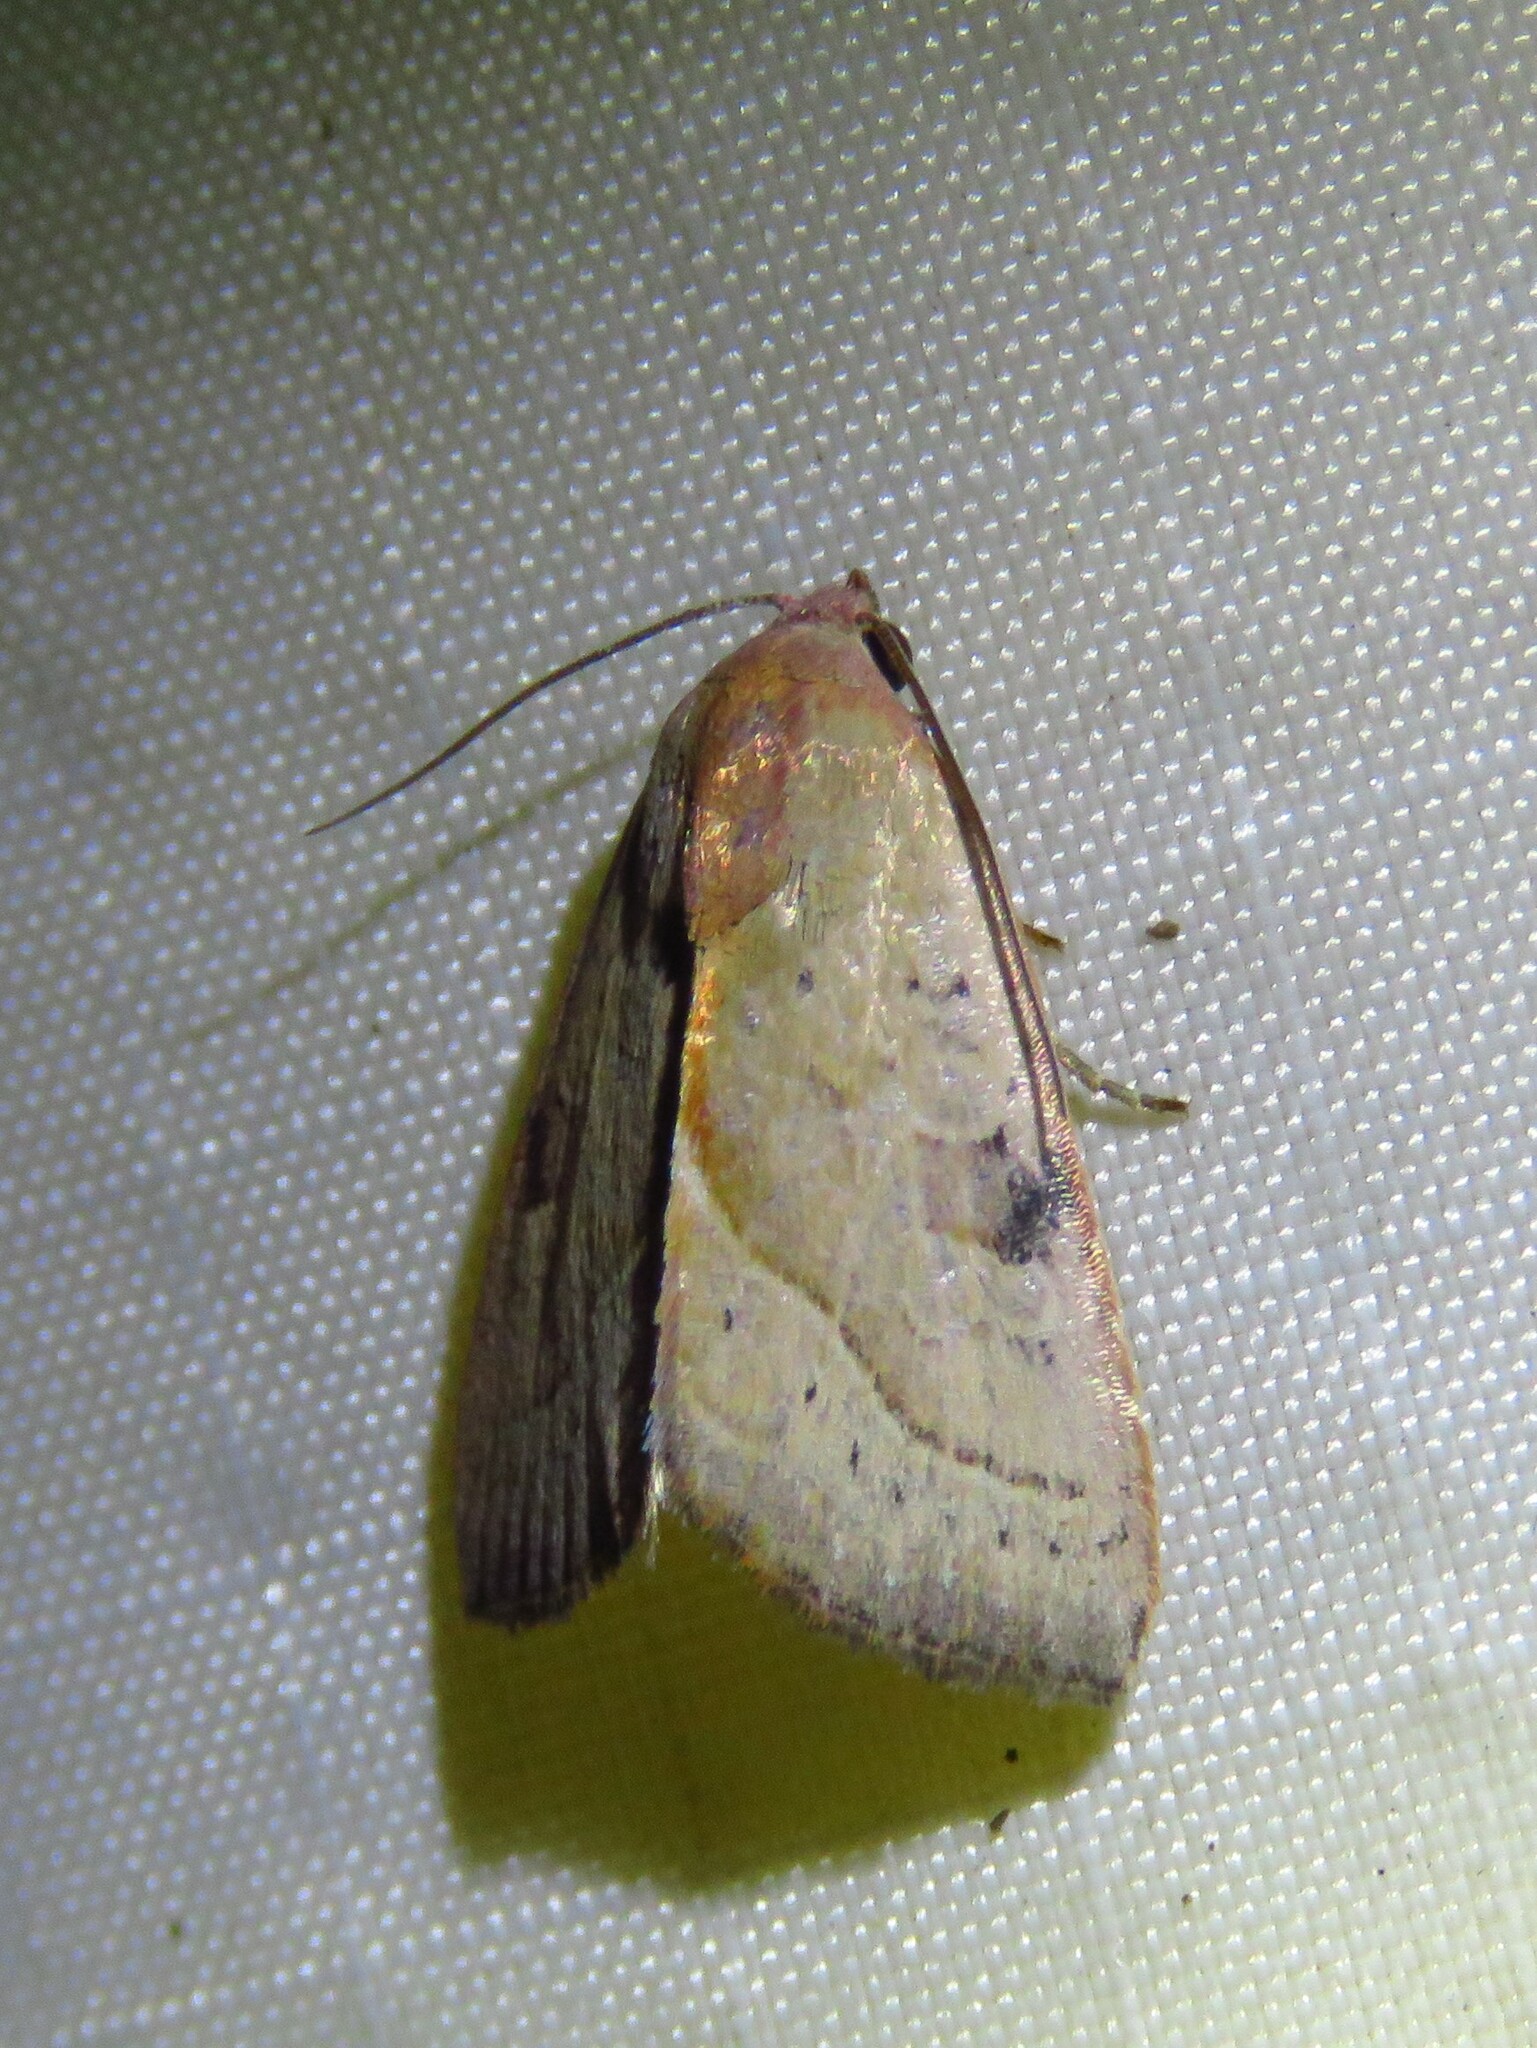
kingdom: Animalia
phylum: Arthropoda
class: Insecta
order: Lepidoptera
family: Noctuidae
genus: Galgula
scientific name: Galgula partita
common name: Wedgeling
